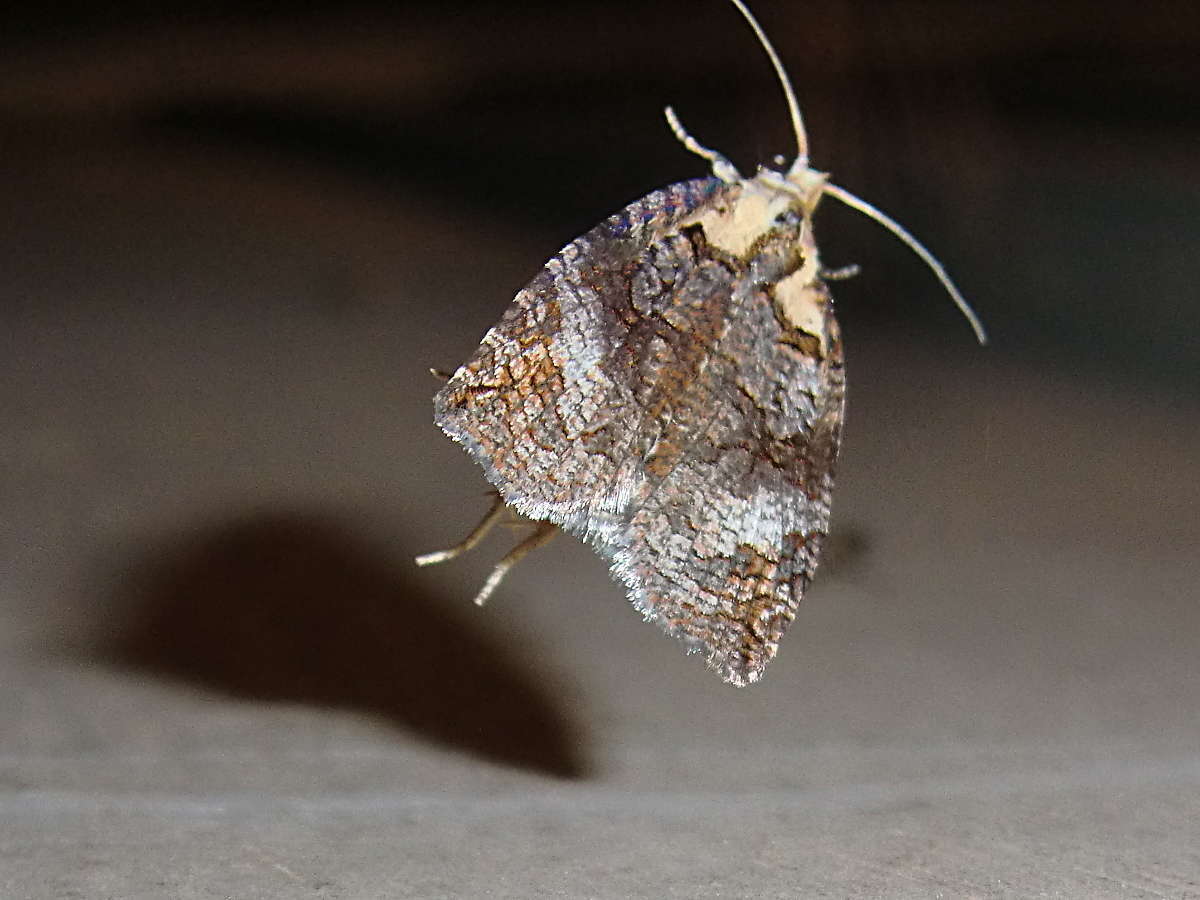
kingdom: Animalia
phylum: Arthropoda
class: Insecta
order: Lepidoptera
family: Tortricidae
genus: Cryptoptila
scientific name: Cryptoptila immersana
